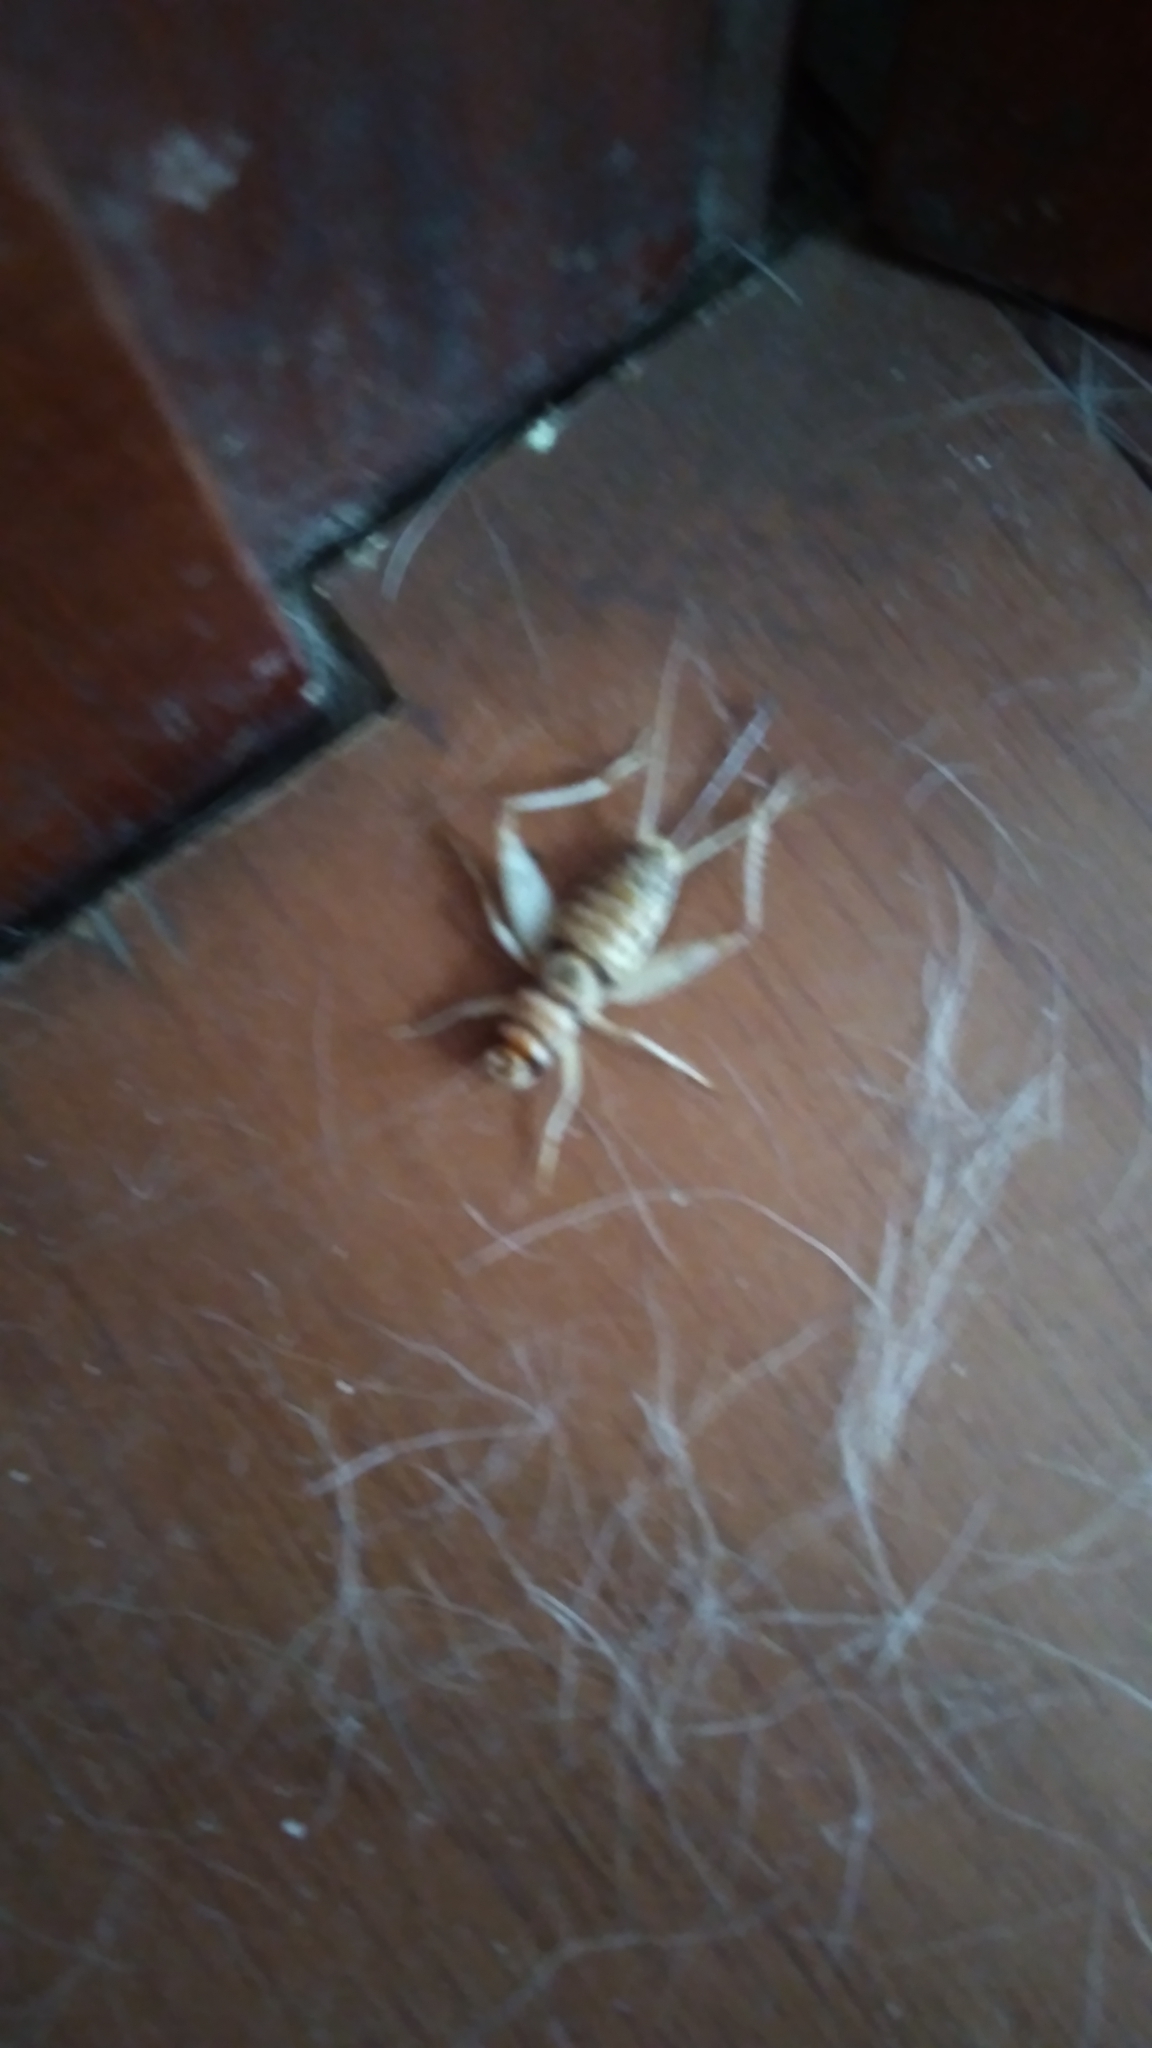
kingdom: Animalia
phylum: Arthropoda
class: Insecta
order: Orthoptera
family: Gryllidae
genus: Gryllodes
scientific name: Gryllodes sigillatus
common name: Tropical house cricket
